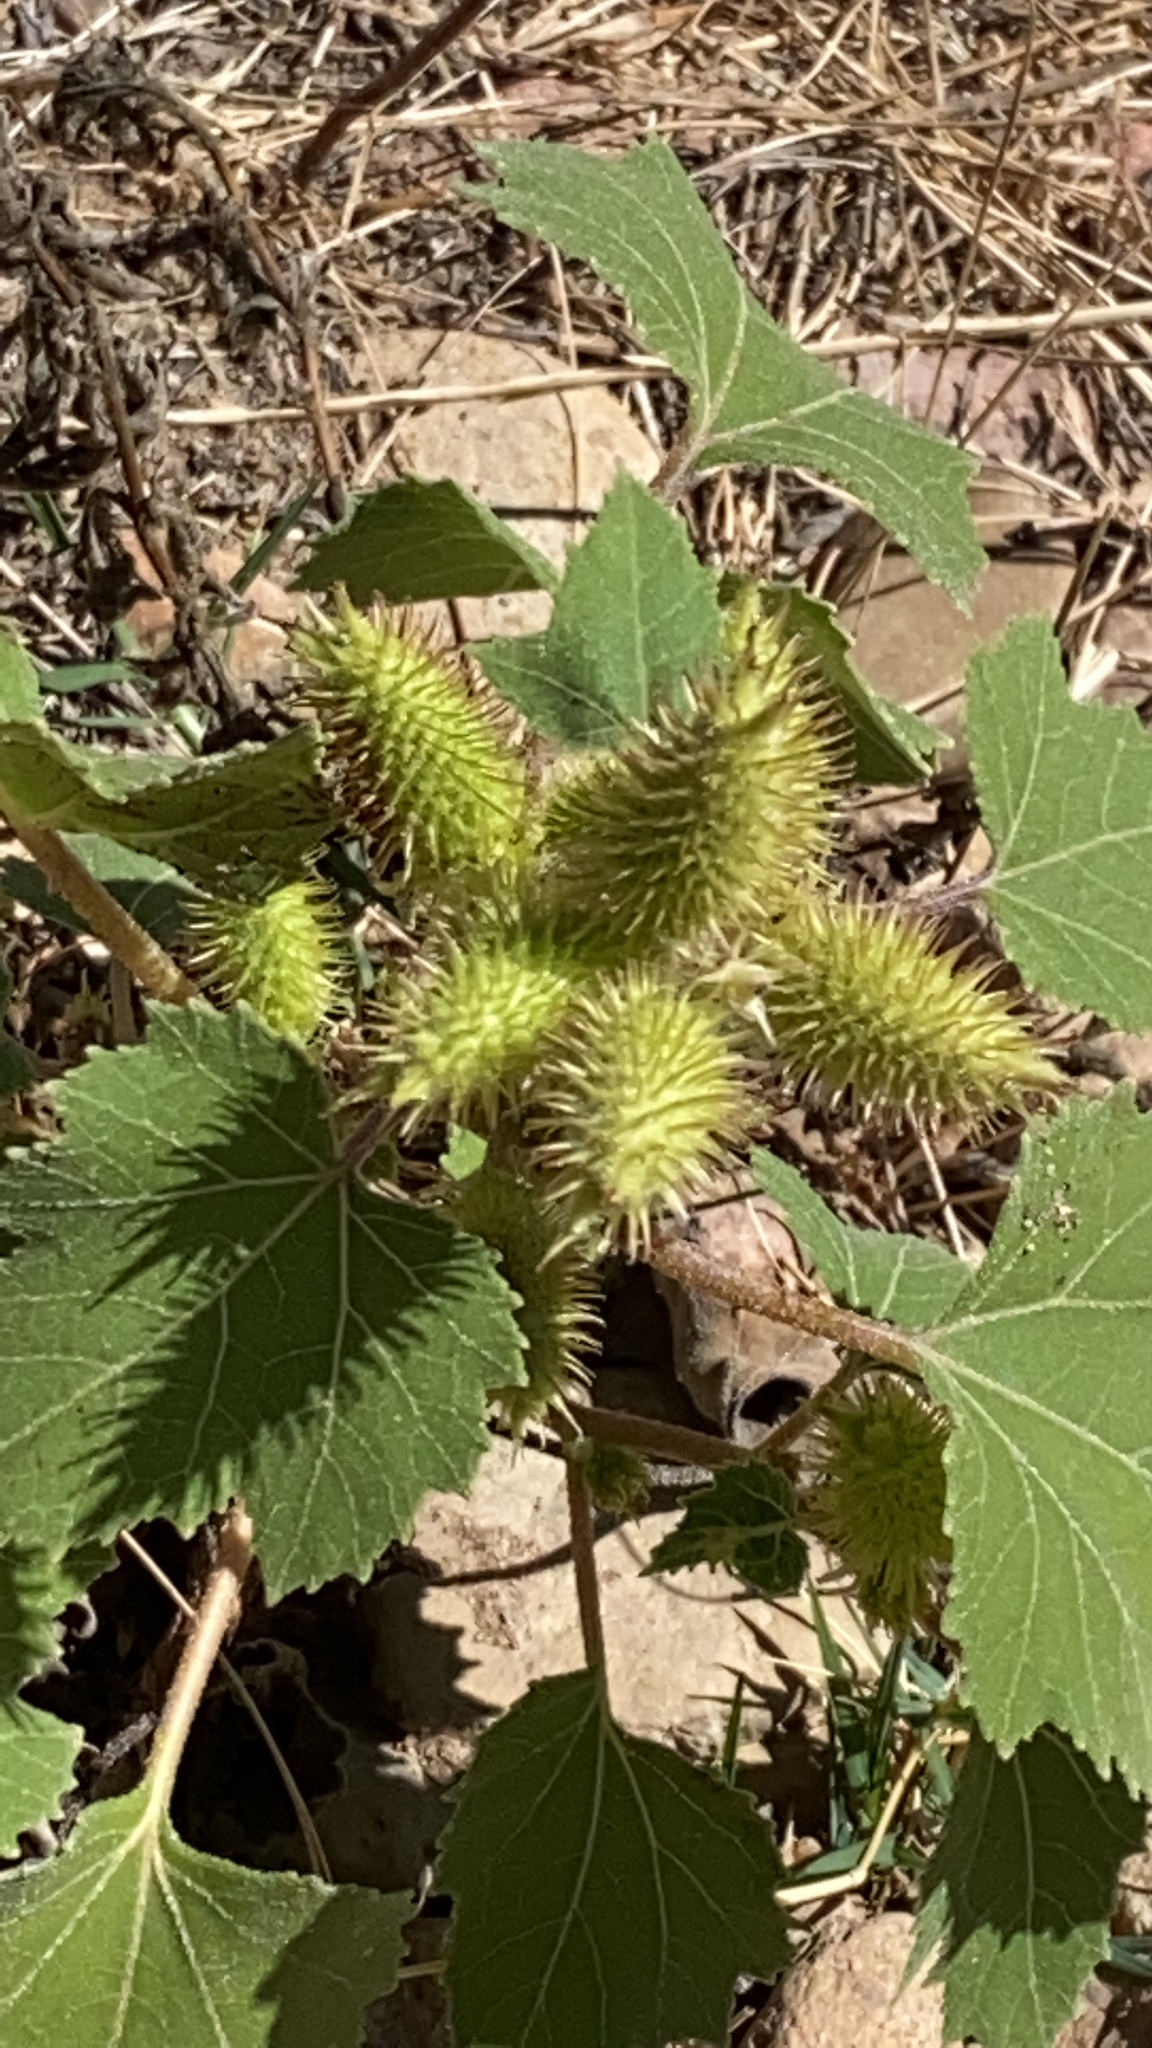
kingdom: Plantae
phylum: Tracheophyta
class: Magnoliopsida
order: Asterales
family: Asteraceae
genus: Xanthium
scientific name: Xanthium strumarium
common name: Rough cocklebur
